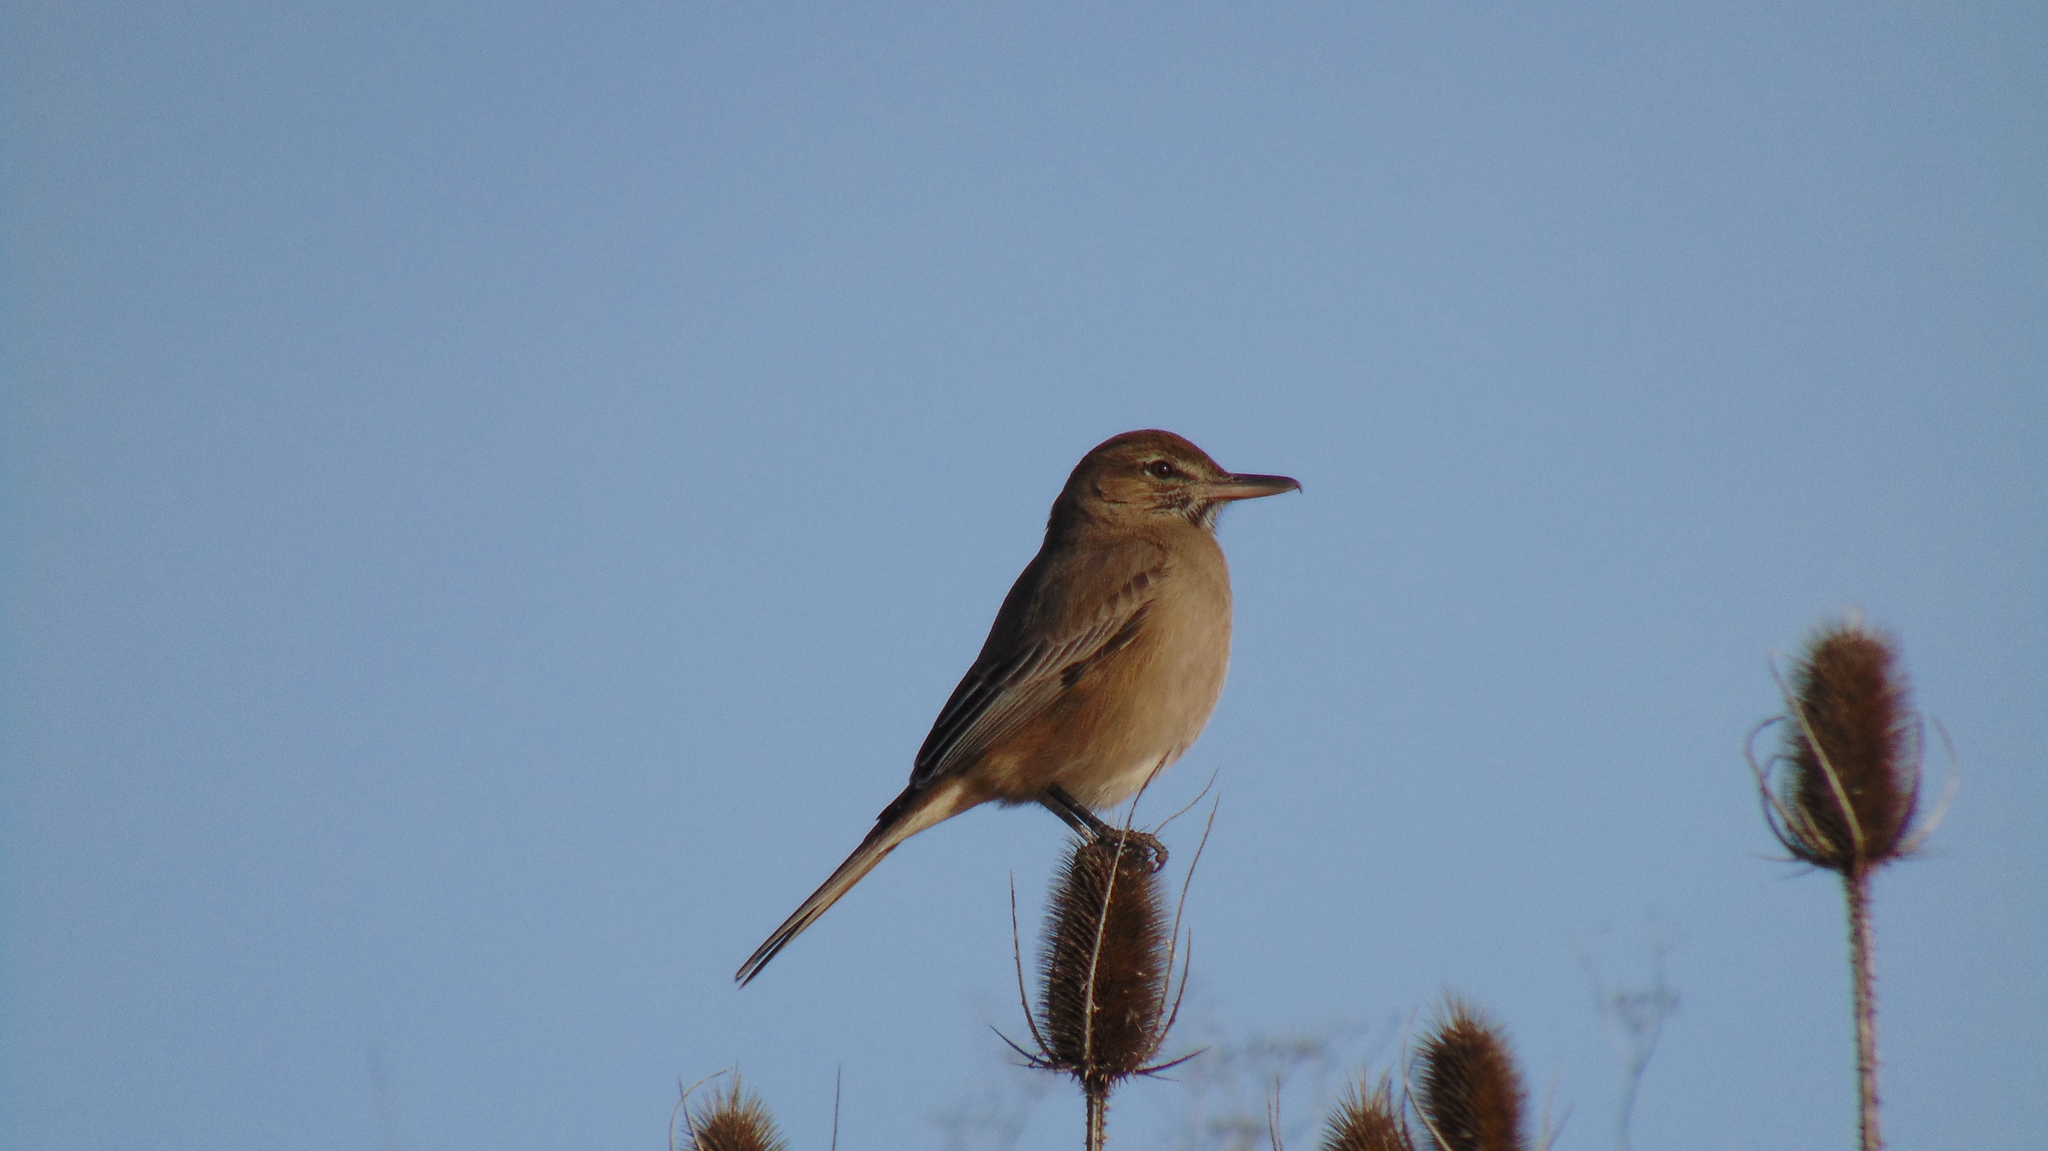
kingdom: Animalia
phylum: Chordata
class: Aves
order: Passeriformes
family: Tyrannidae
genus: Agriornis
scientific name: Agriornis micropterus
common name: Grey-bellied shrike-tyrant
